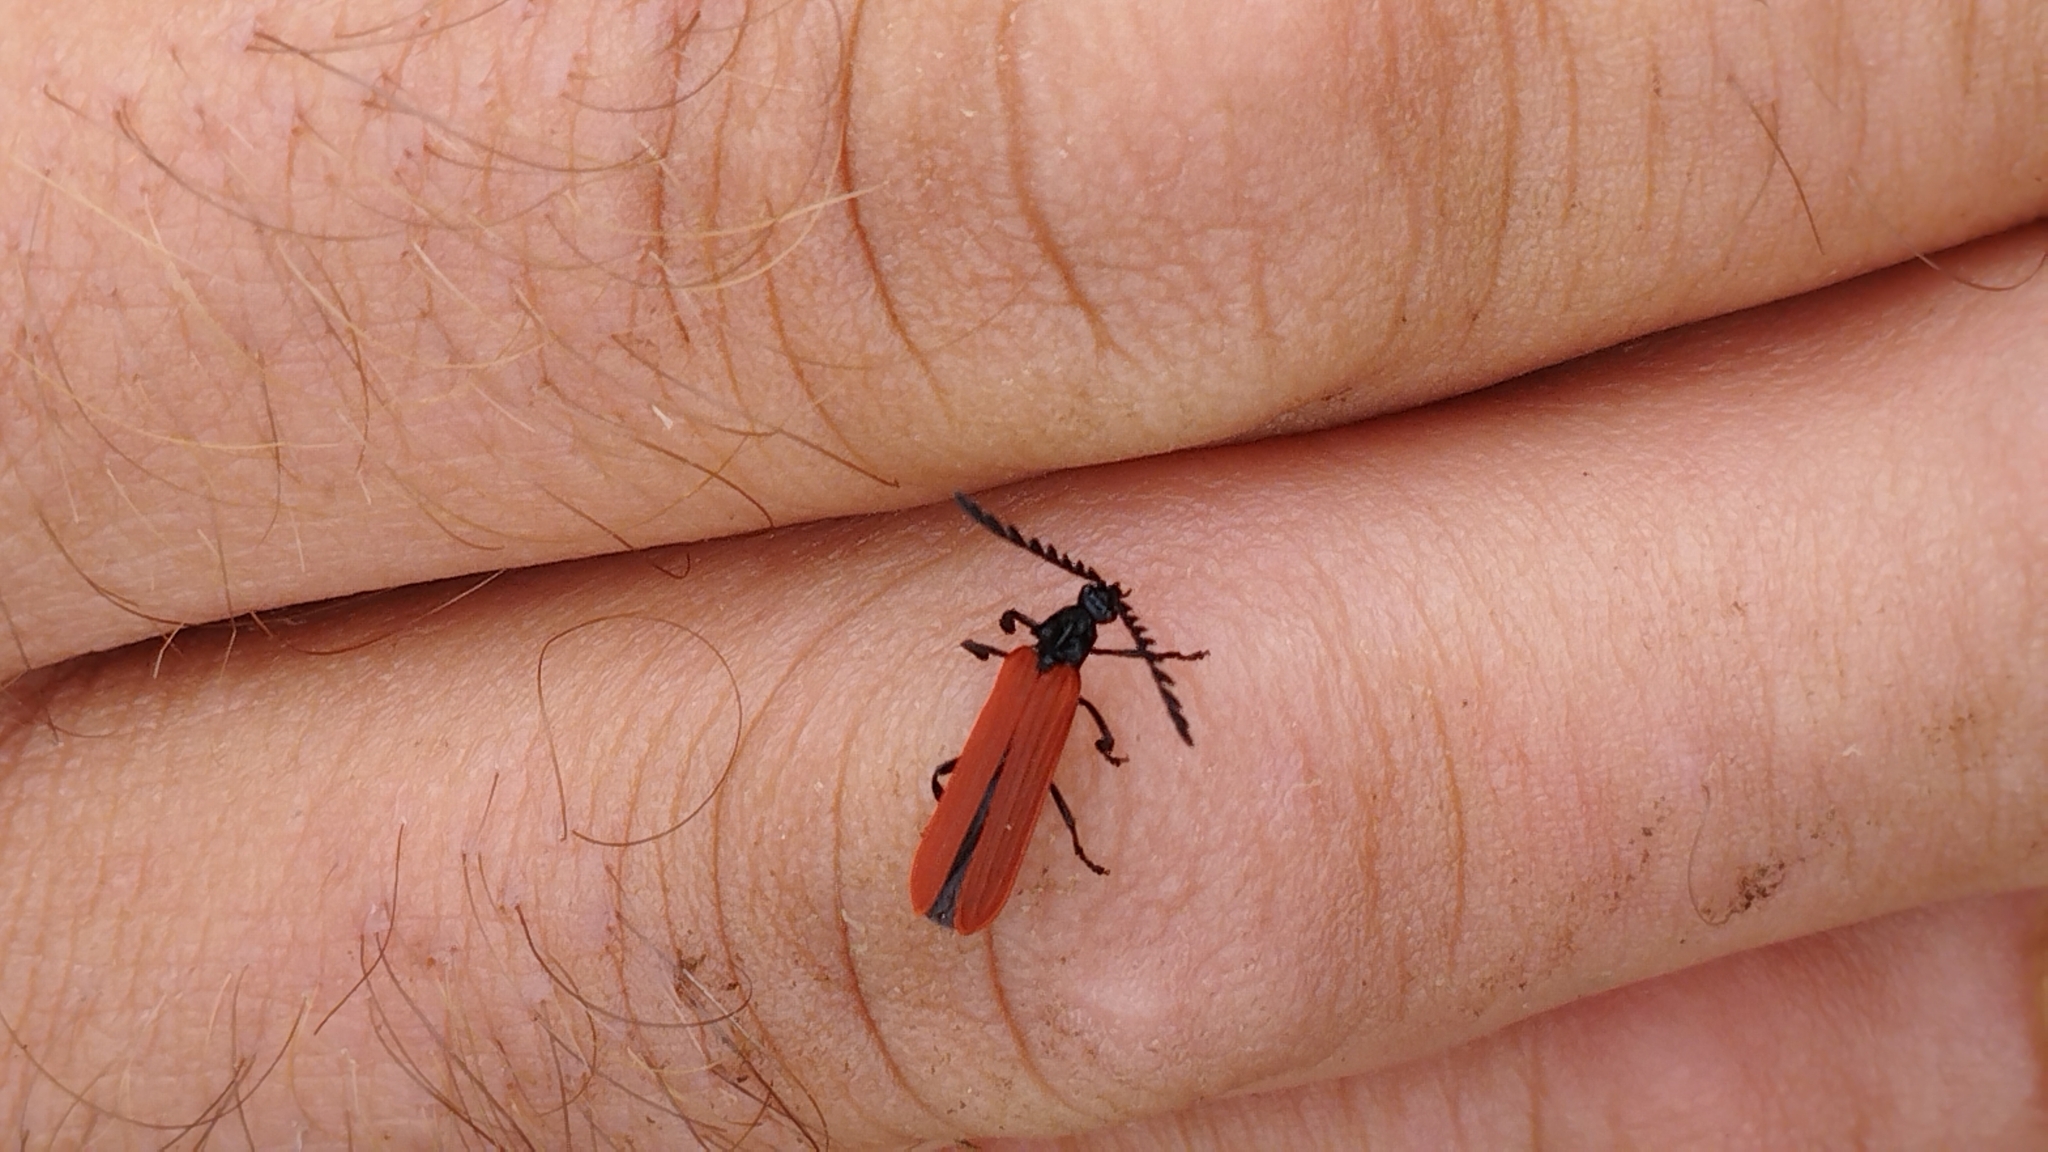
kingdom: Animalia
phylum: Arthropoda
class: Insecta
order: Coleoptera
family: Lycidae
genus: Porrostoma
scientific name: Porrostoma rufipenne
